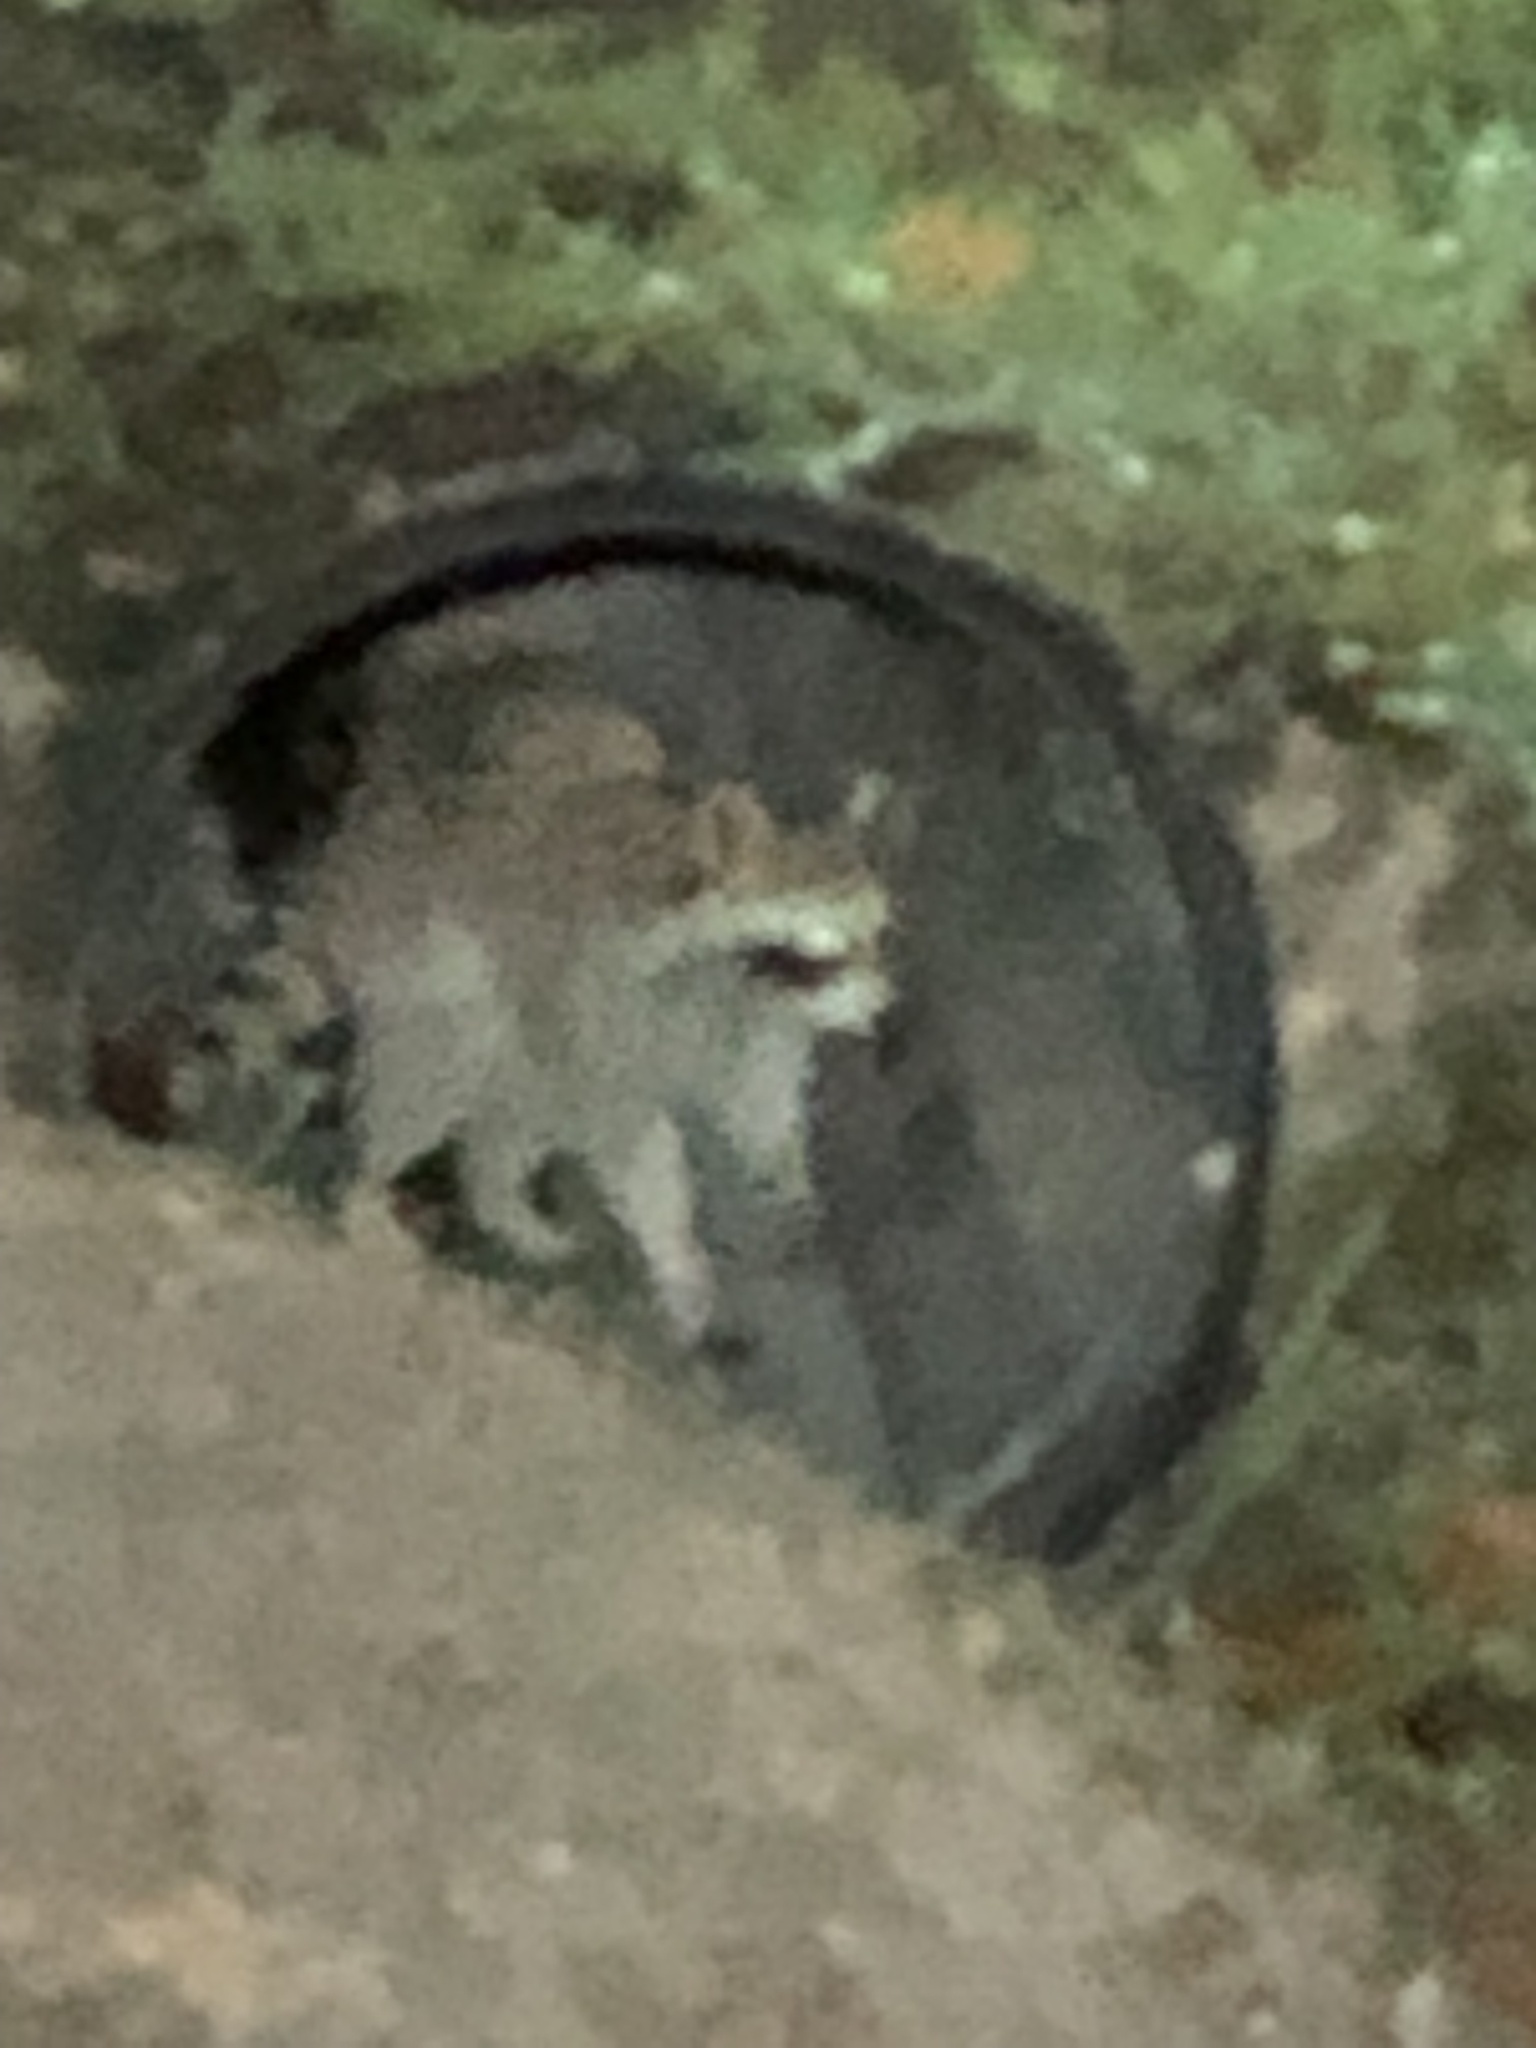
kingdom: Animalia
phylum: Chordata
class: Mammalia
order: Carnivora
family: Procyonidae
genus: Procyon
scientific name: Procyon lotor
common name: Raccoon
